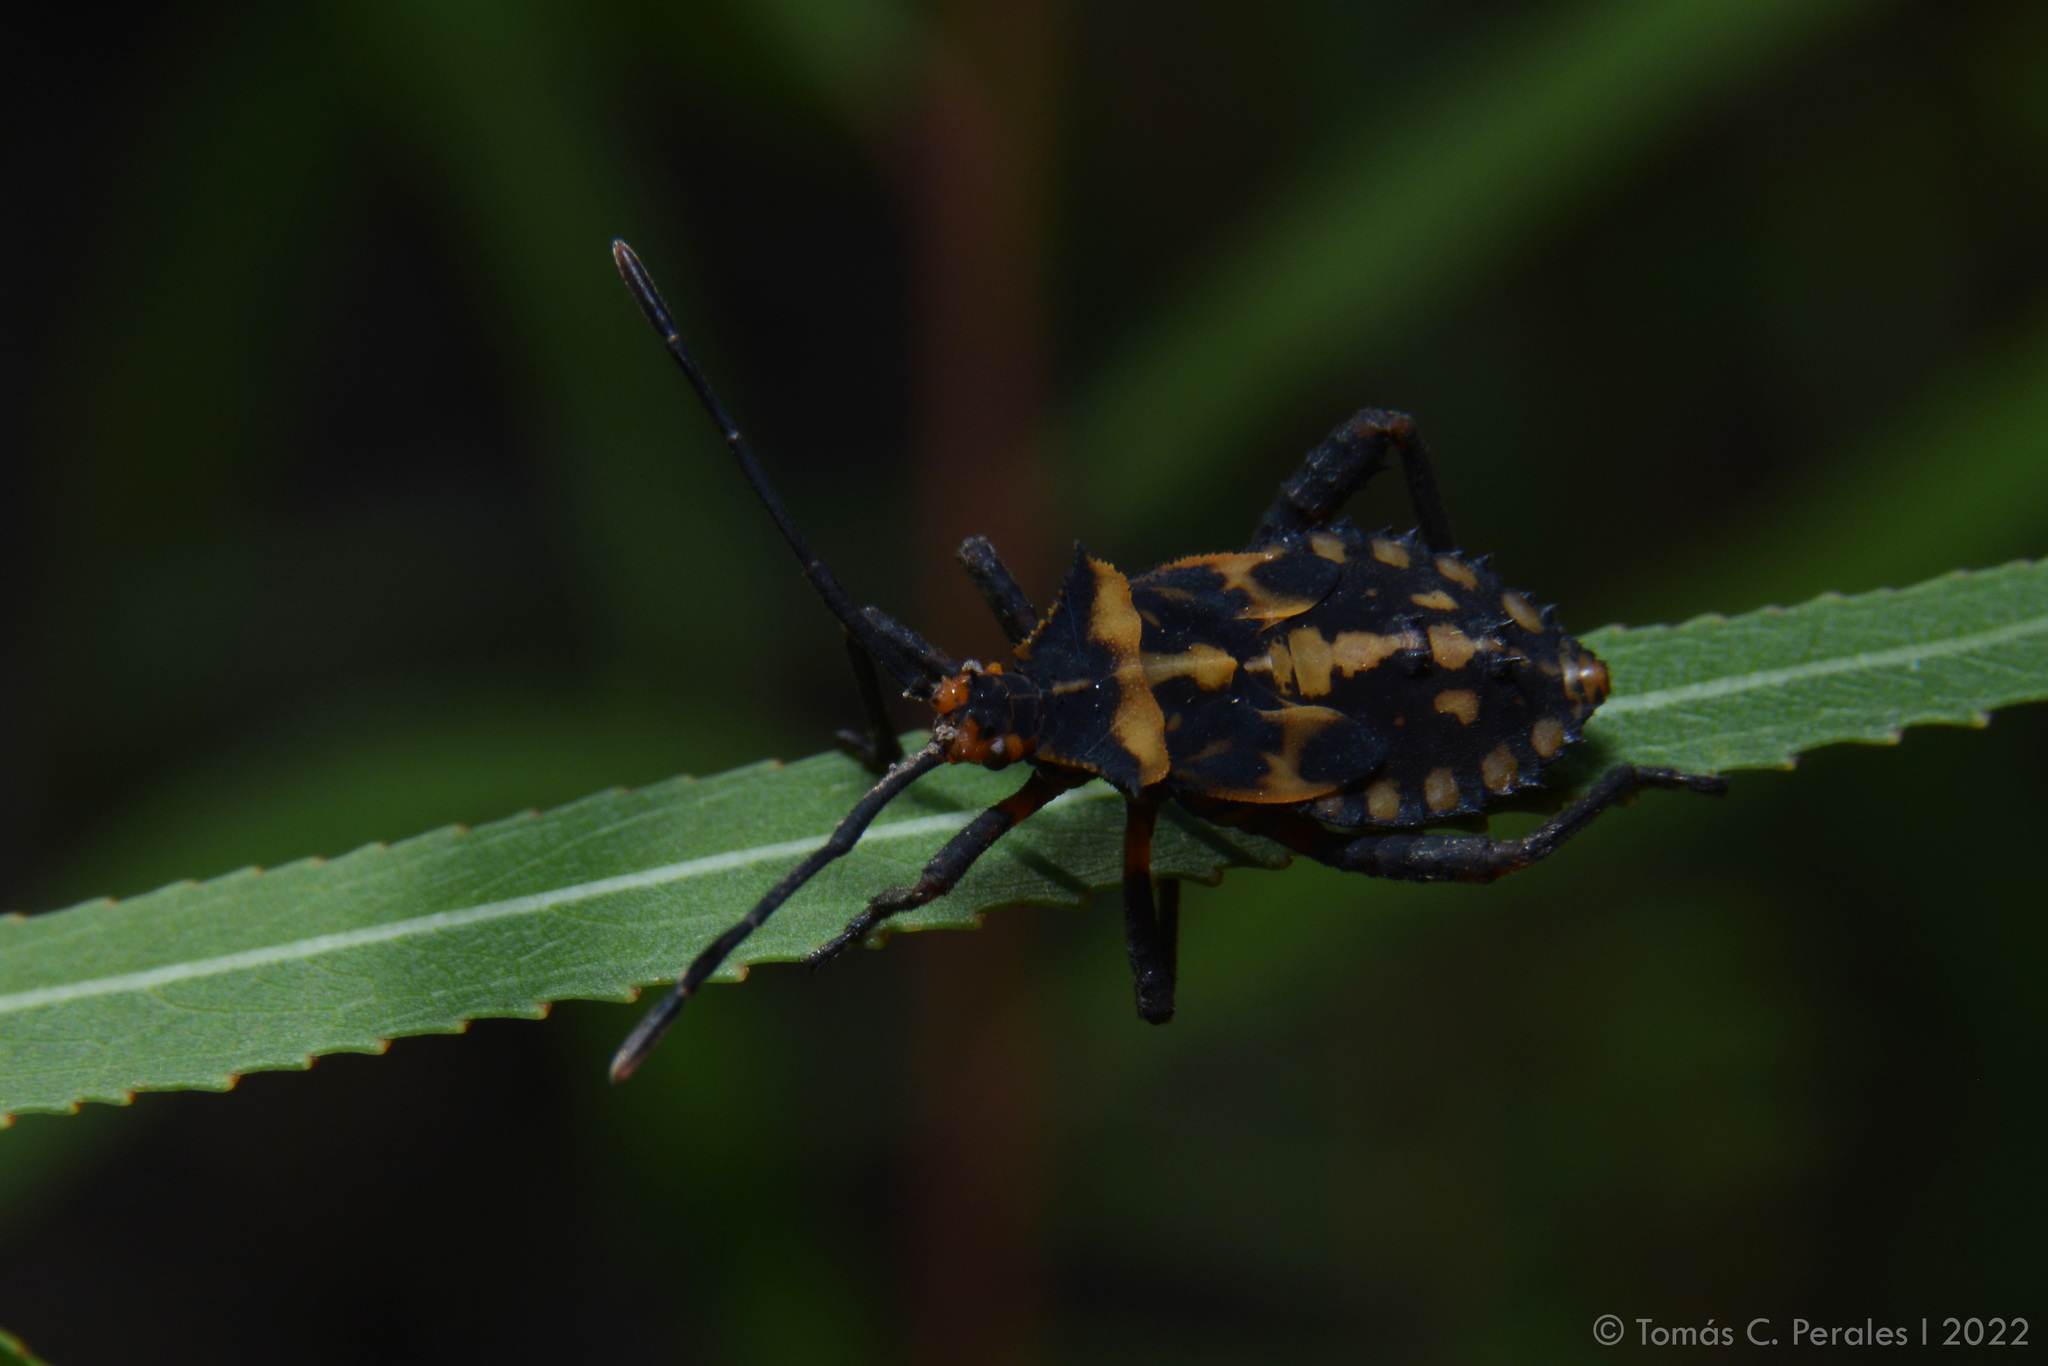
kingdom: Animalia
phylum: Arthropoda
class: Insecta
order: Hemiptera
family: Coreidae
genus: Camptischium
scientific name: Camptischium clavipes
